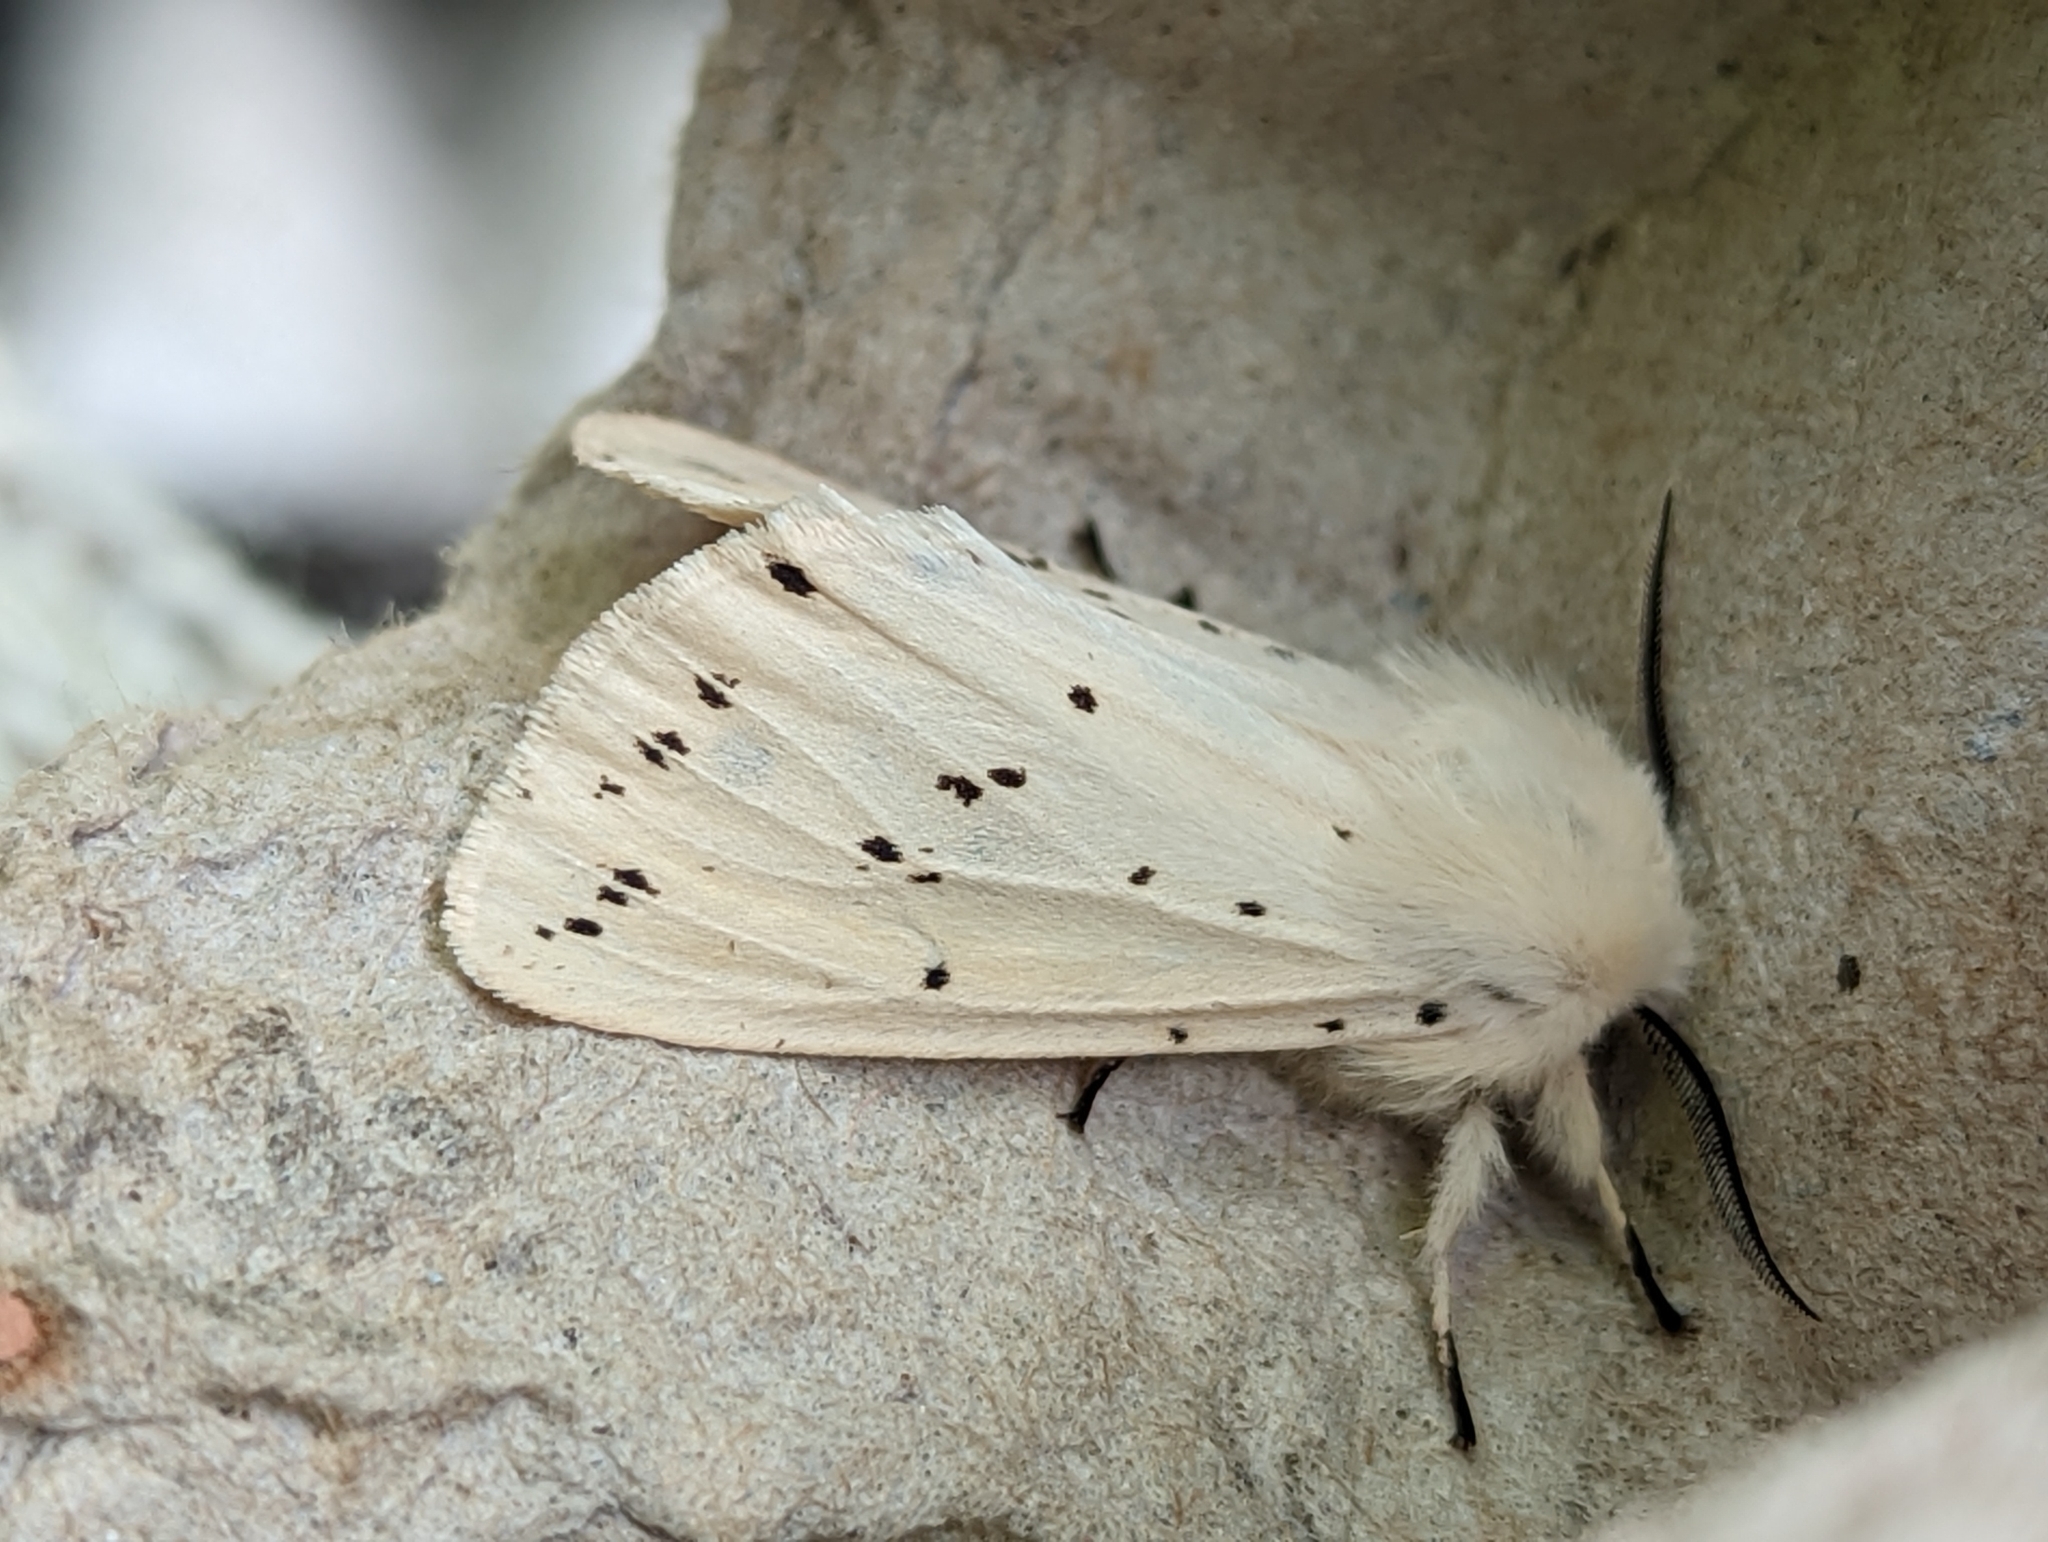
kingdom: Animalia
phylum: Arthropoda
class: Insecta
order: Lepidoptera
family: Erebidae
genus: Spilosoma
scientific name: Spilosoma lubricipeda
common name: White ermine
